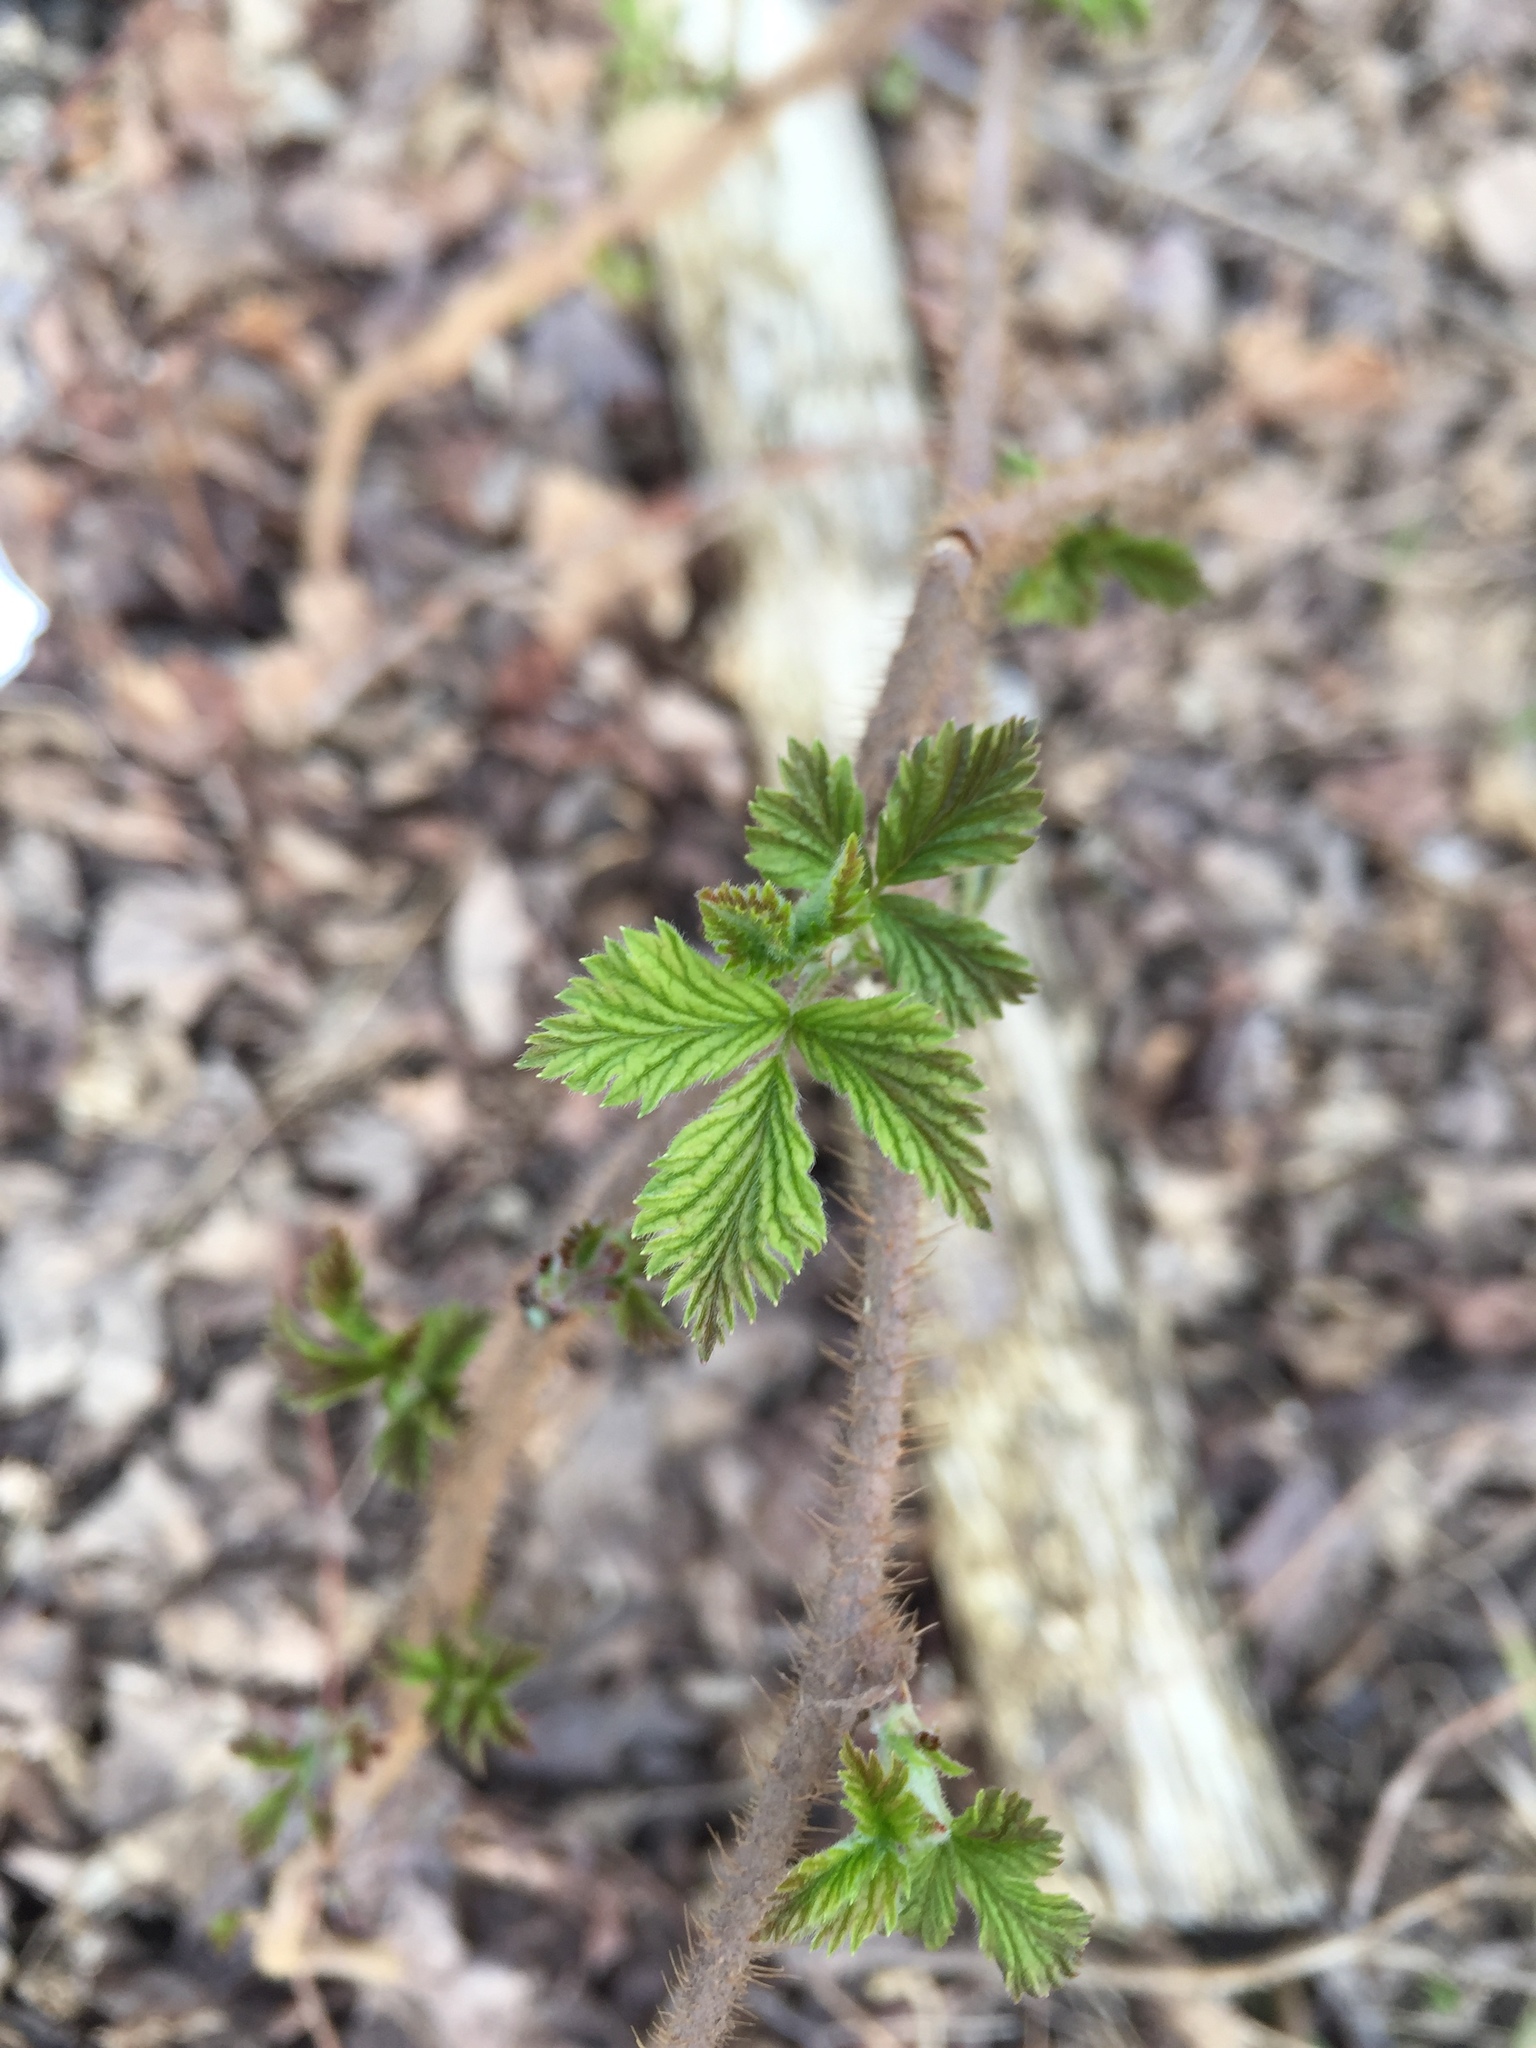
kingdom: Plantae
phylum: Tracheophyta
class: Magnoliopsida
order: Rosales
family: Rosaceae
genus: Rubus
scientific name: Rubus idaeus
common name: Raspberry
